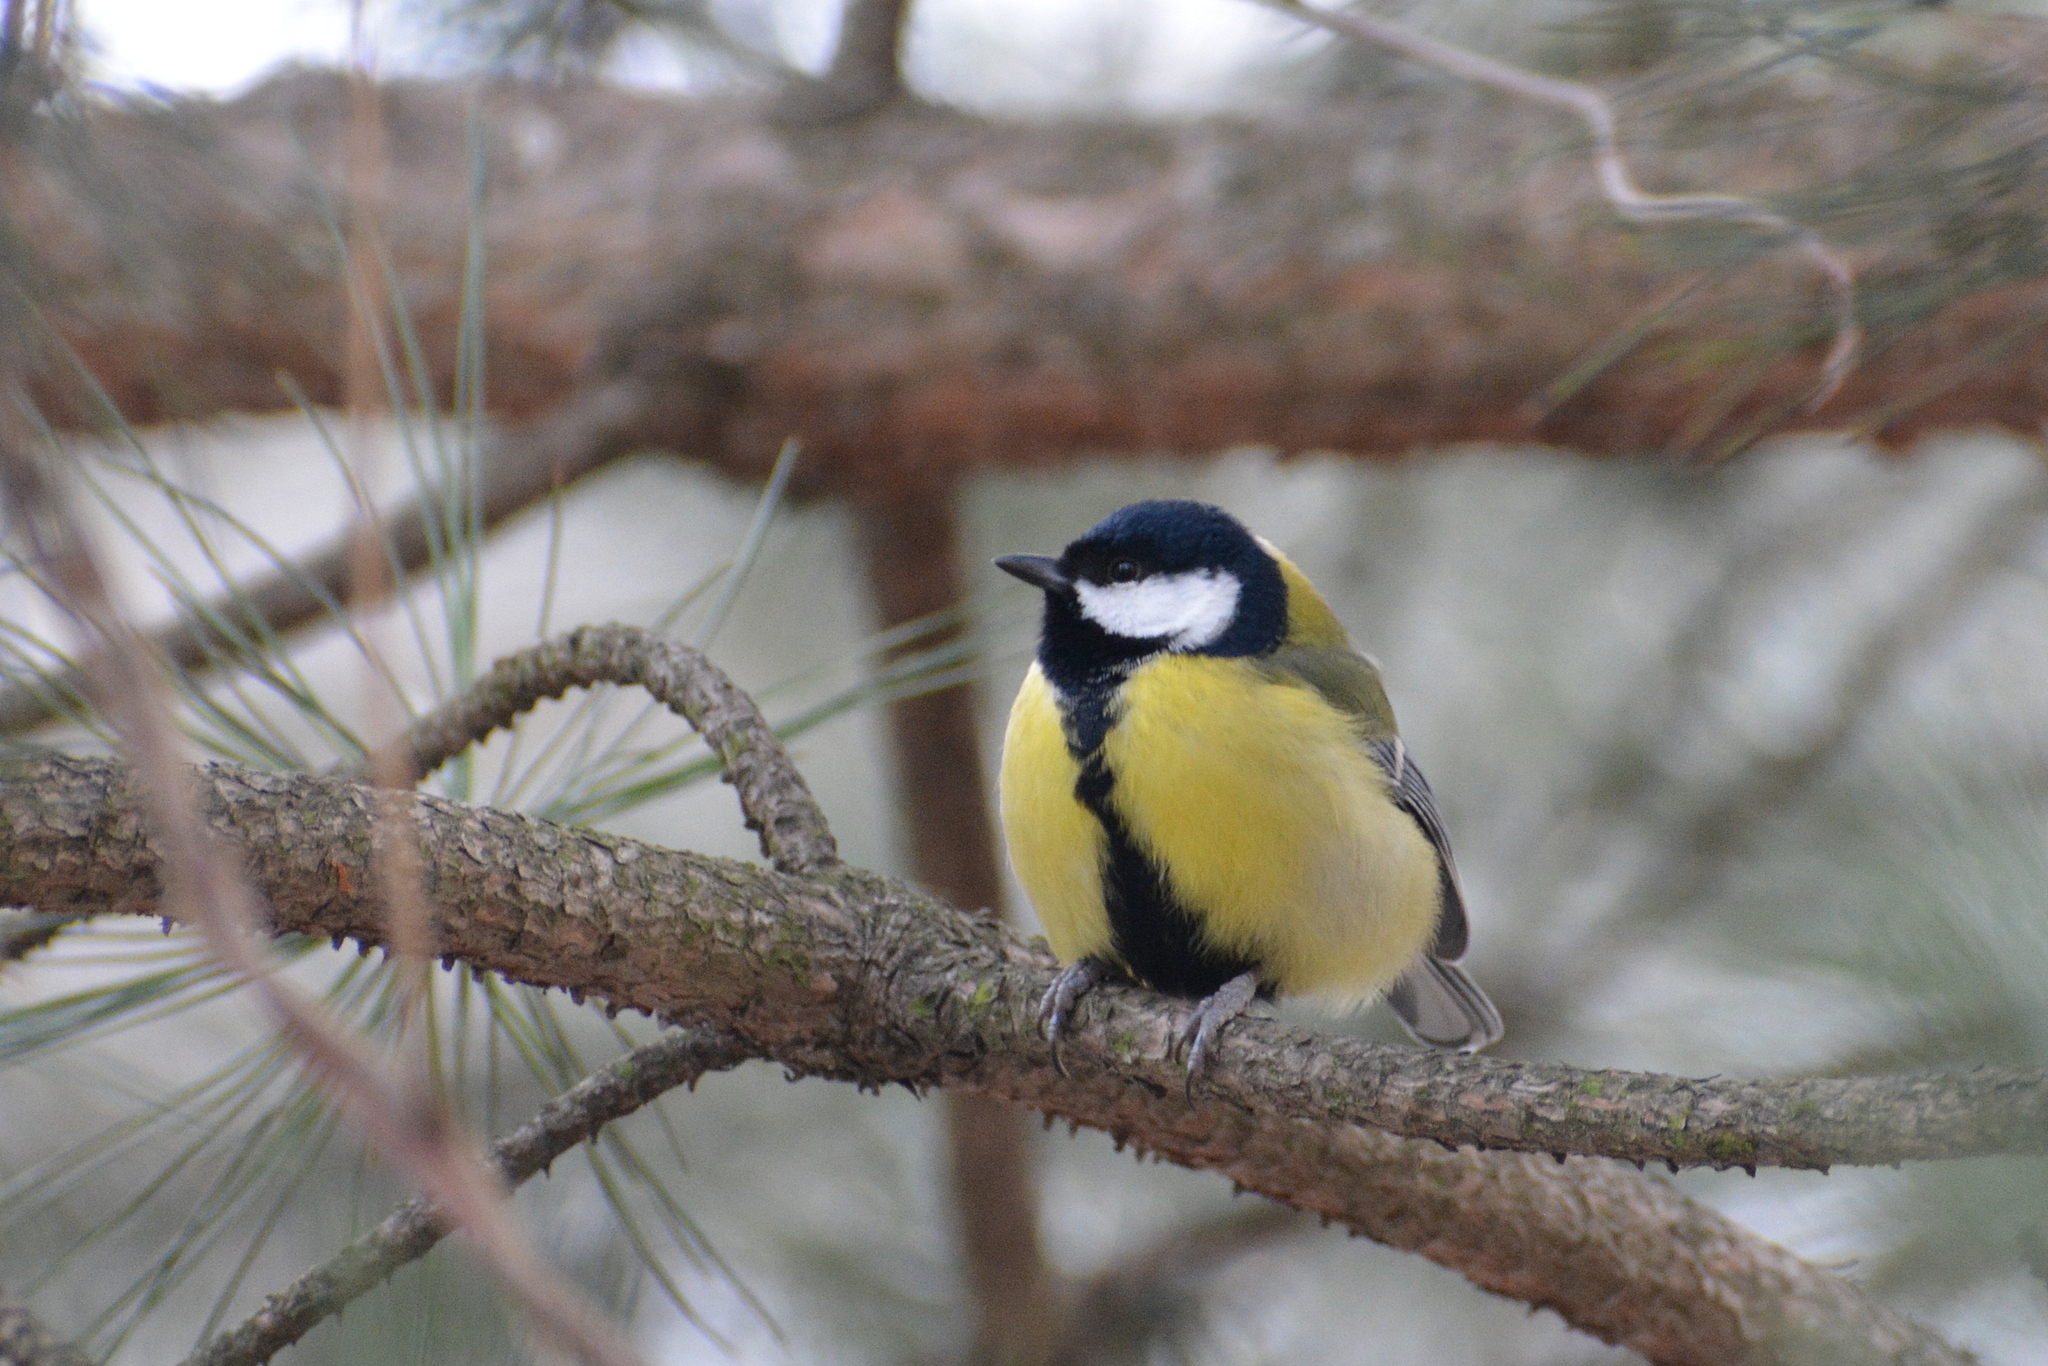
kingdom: Animalia
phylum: Chordata
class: Aves
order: Passeriformes
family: Paridae
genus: Parus
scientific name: Parus major
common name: Great tit
